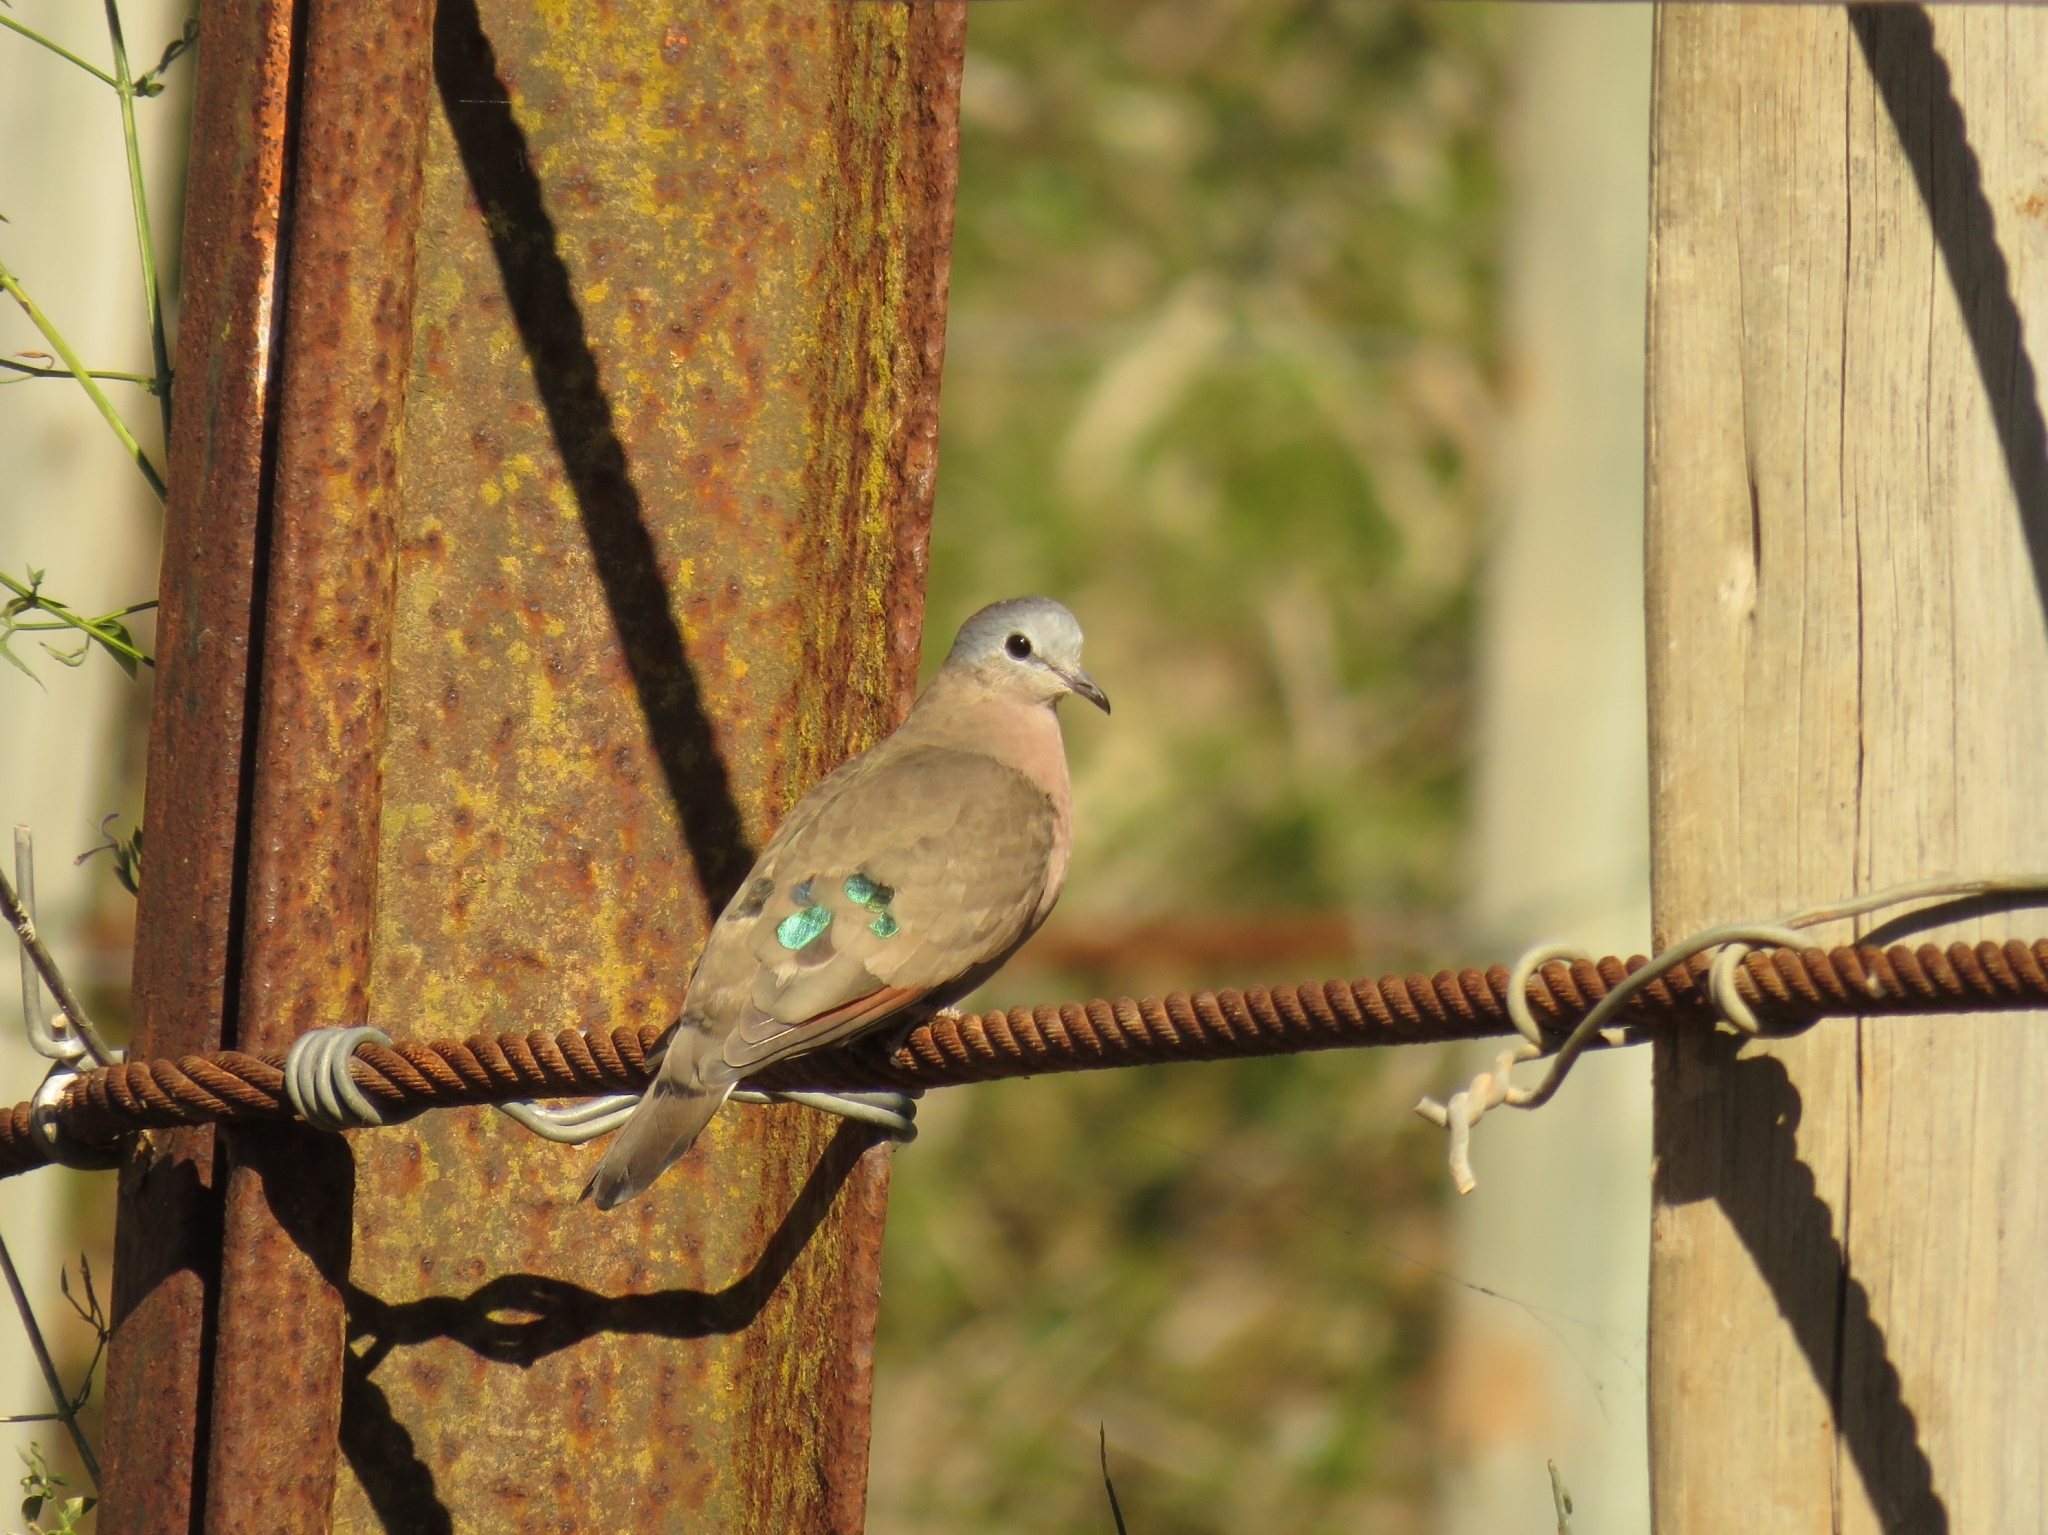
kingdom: Animalia
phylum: Chordata
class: Aves
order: Columbiformes
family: Columbidae
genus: Turtur
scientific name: Turtur chalcospilos
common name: Emerald-spotted wood dove
